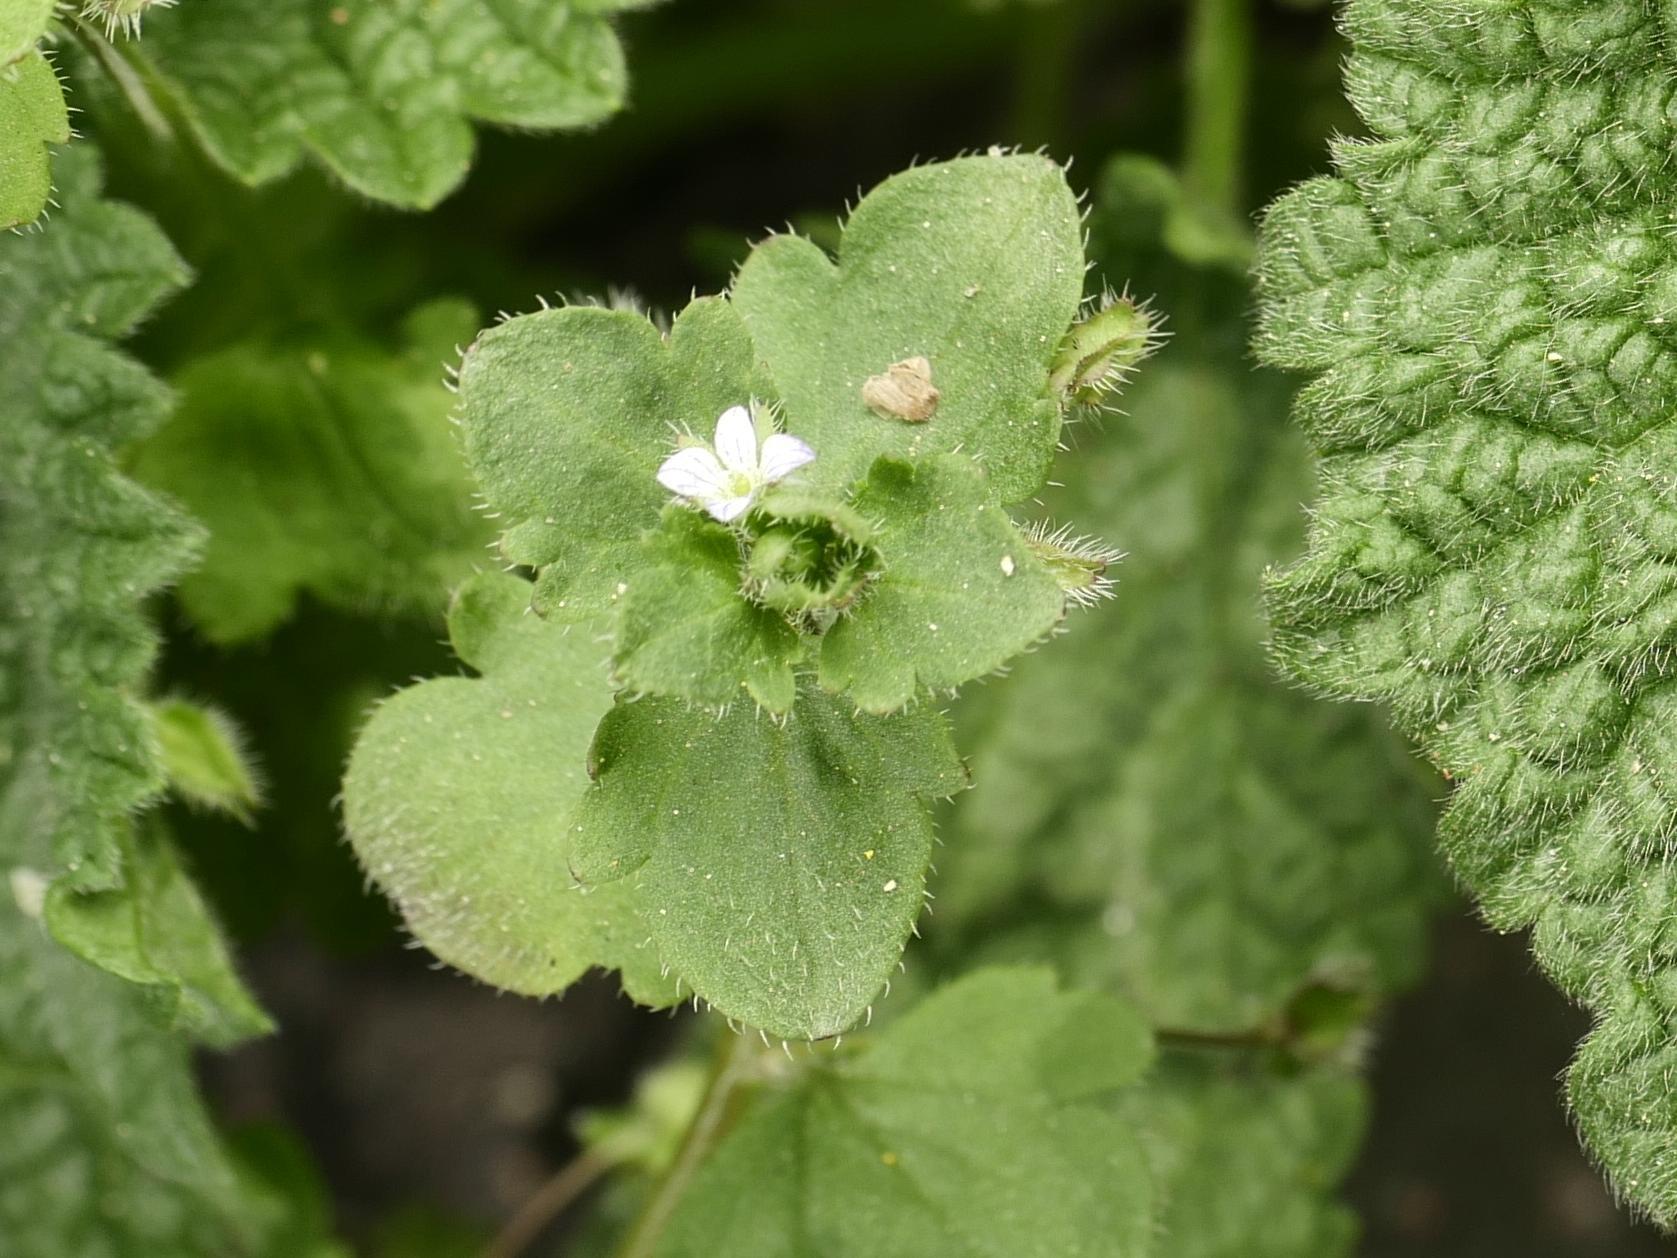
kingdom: Plantae
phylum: Tracheophyta
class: Magnoliopsida
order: Lamiales
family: Plantaginaceae
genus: Veronica
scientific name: Veronica sublobata
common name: False ivy-leaved speedwell
